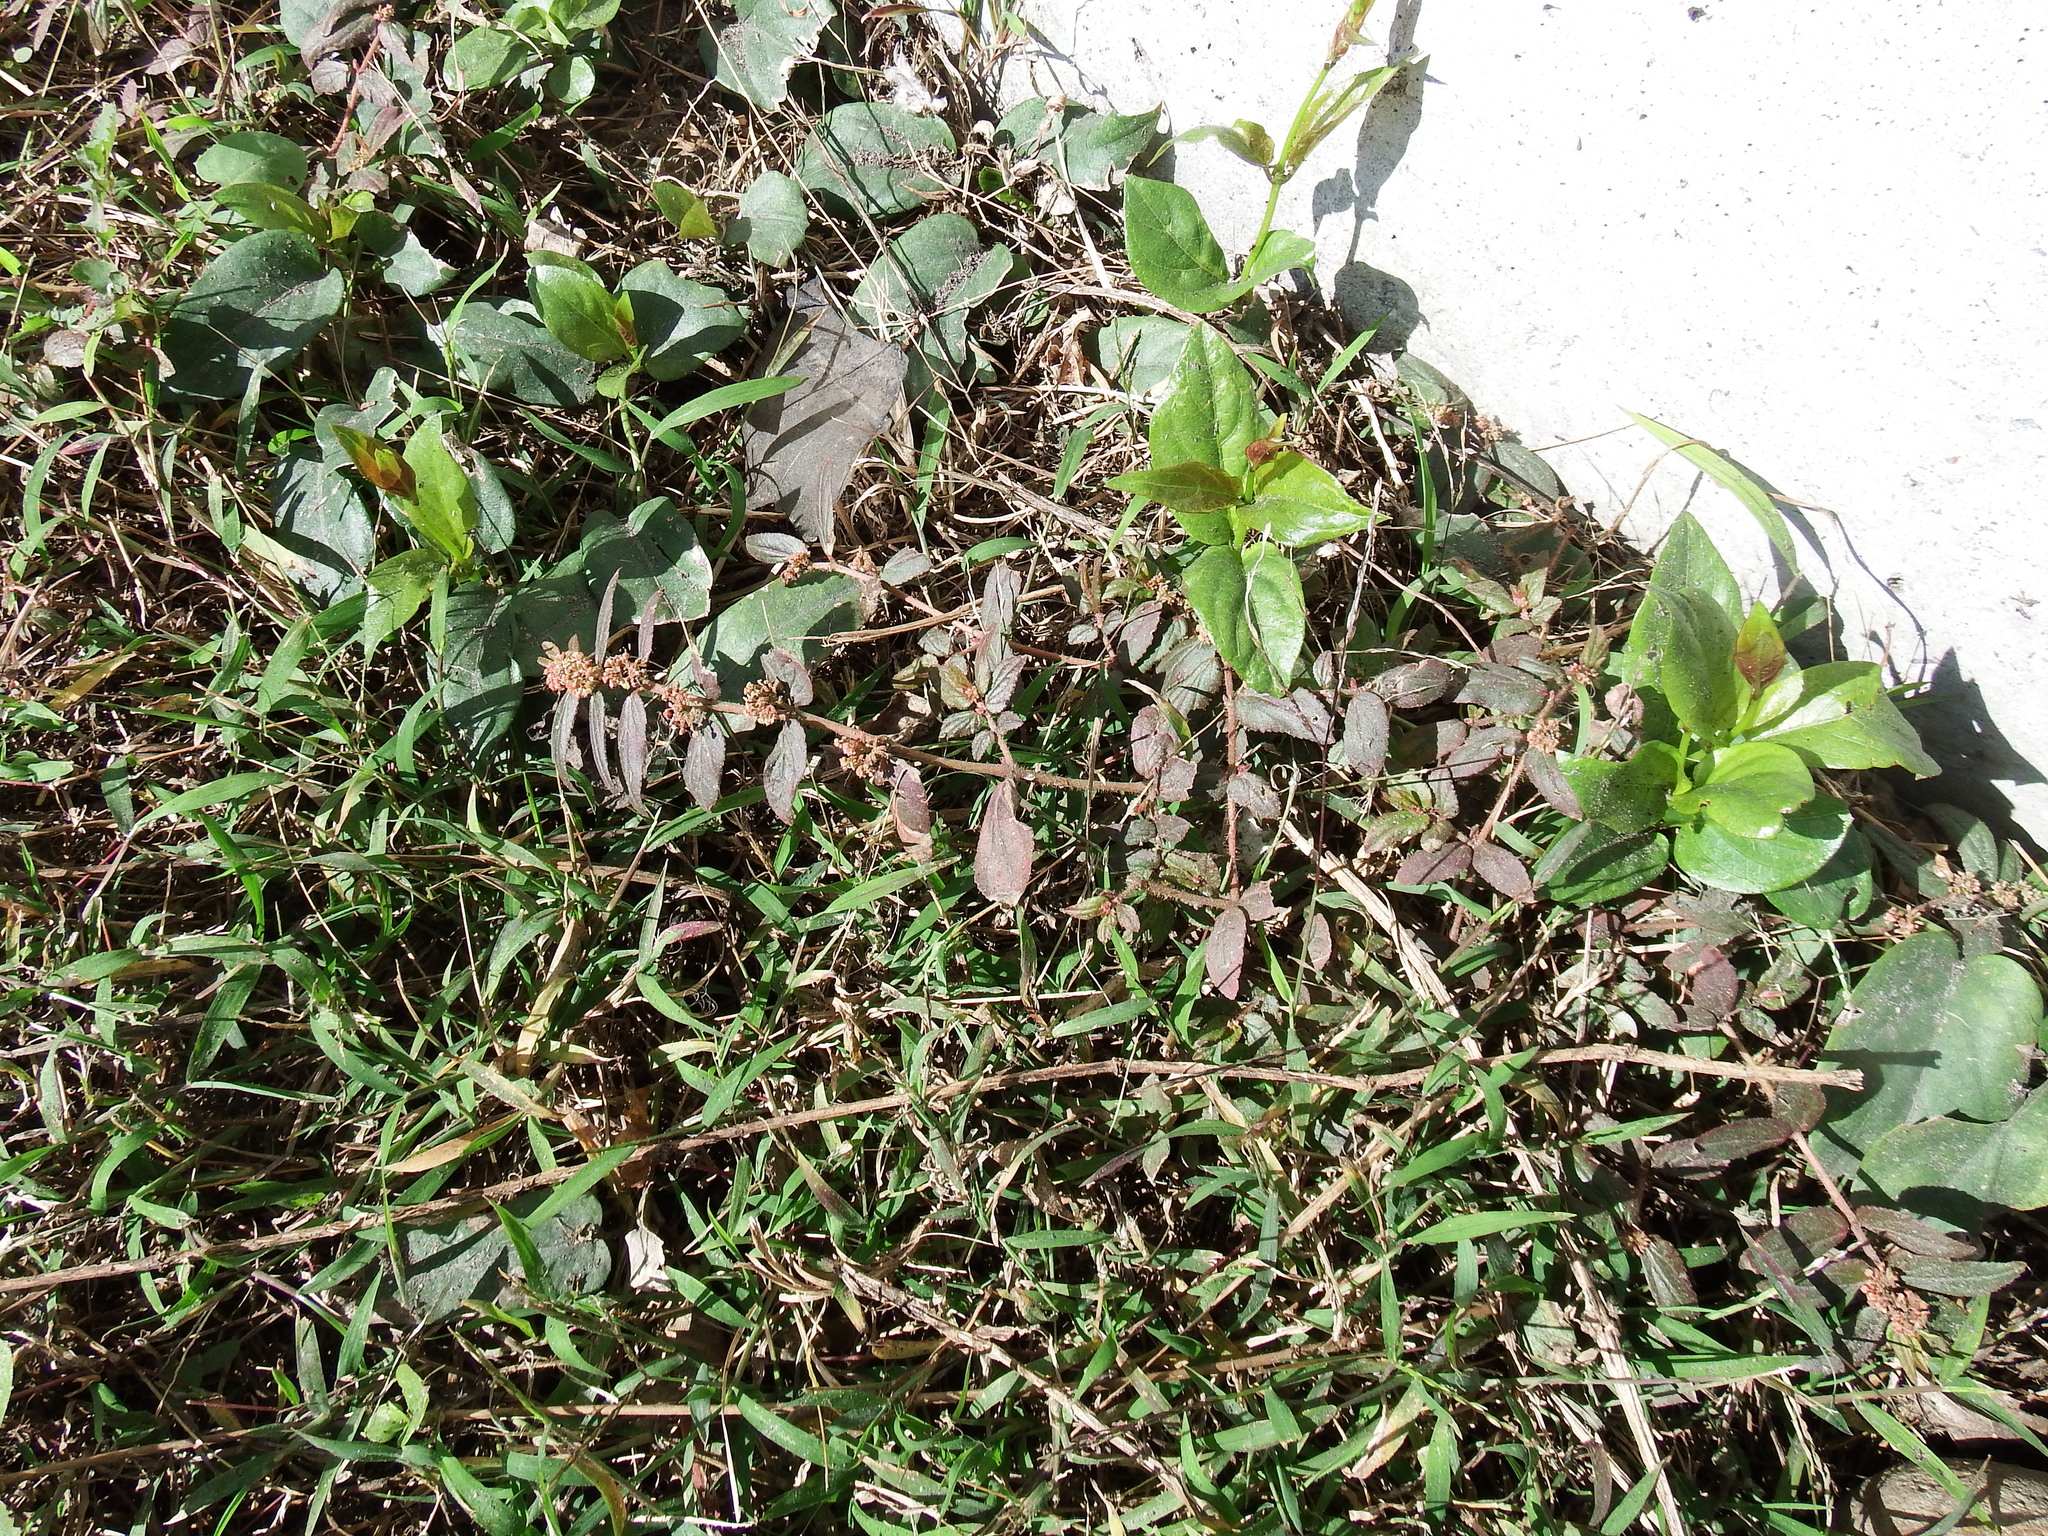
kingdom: Plantae
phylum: Tracheophyta
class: Magnoliopsida
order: Malpighiales
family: Euphorbiaceae
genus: Euphorbia
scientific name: Euphorbia hirta
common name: Pillpod sandmat
